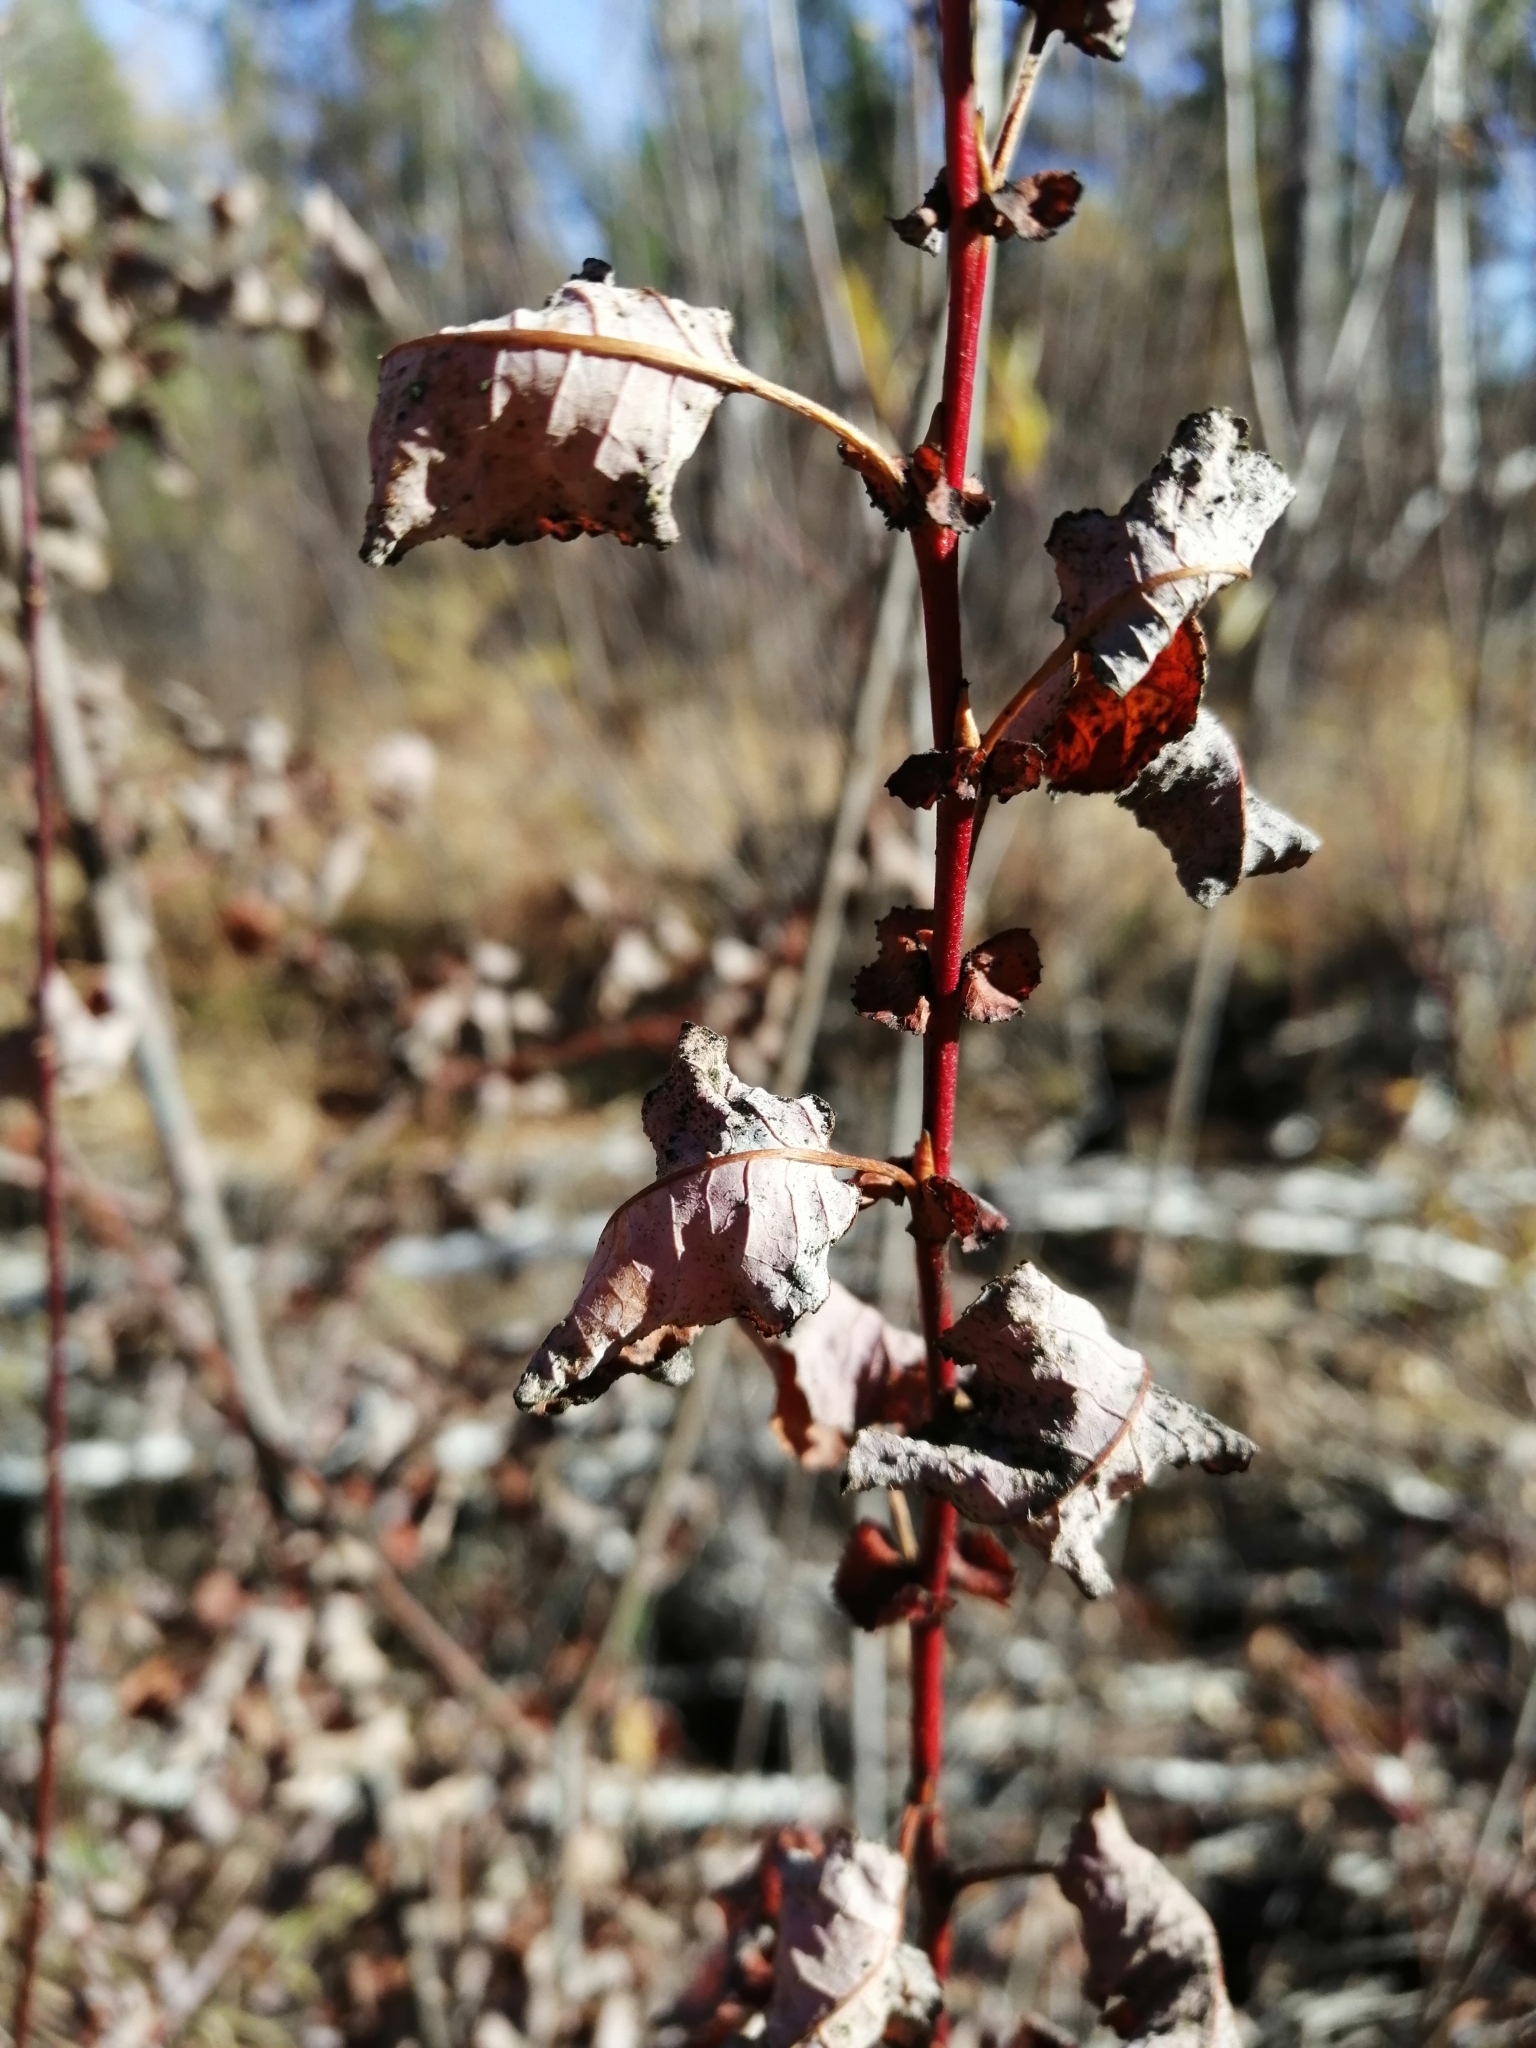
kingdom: Plantae
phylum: Tracheophyta
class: Magnoliopsida
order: Malpighiales
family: Salicaceae
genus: Salix
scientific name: Salix pyrolifolia
